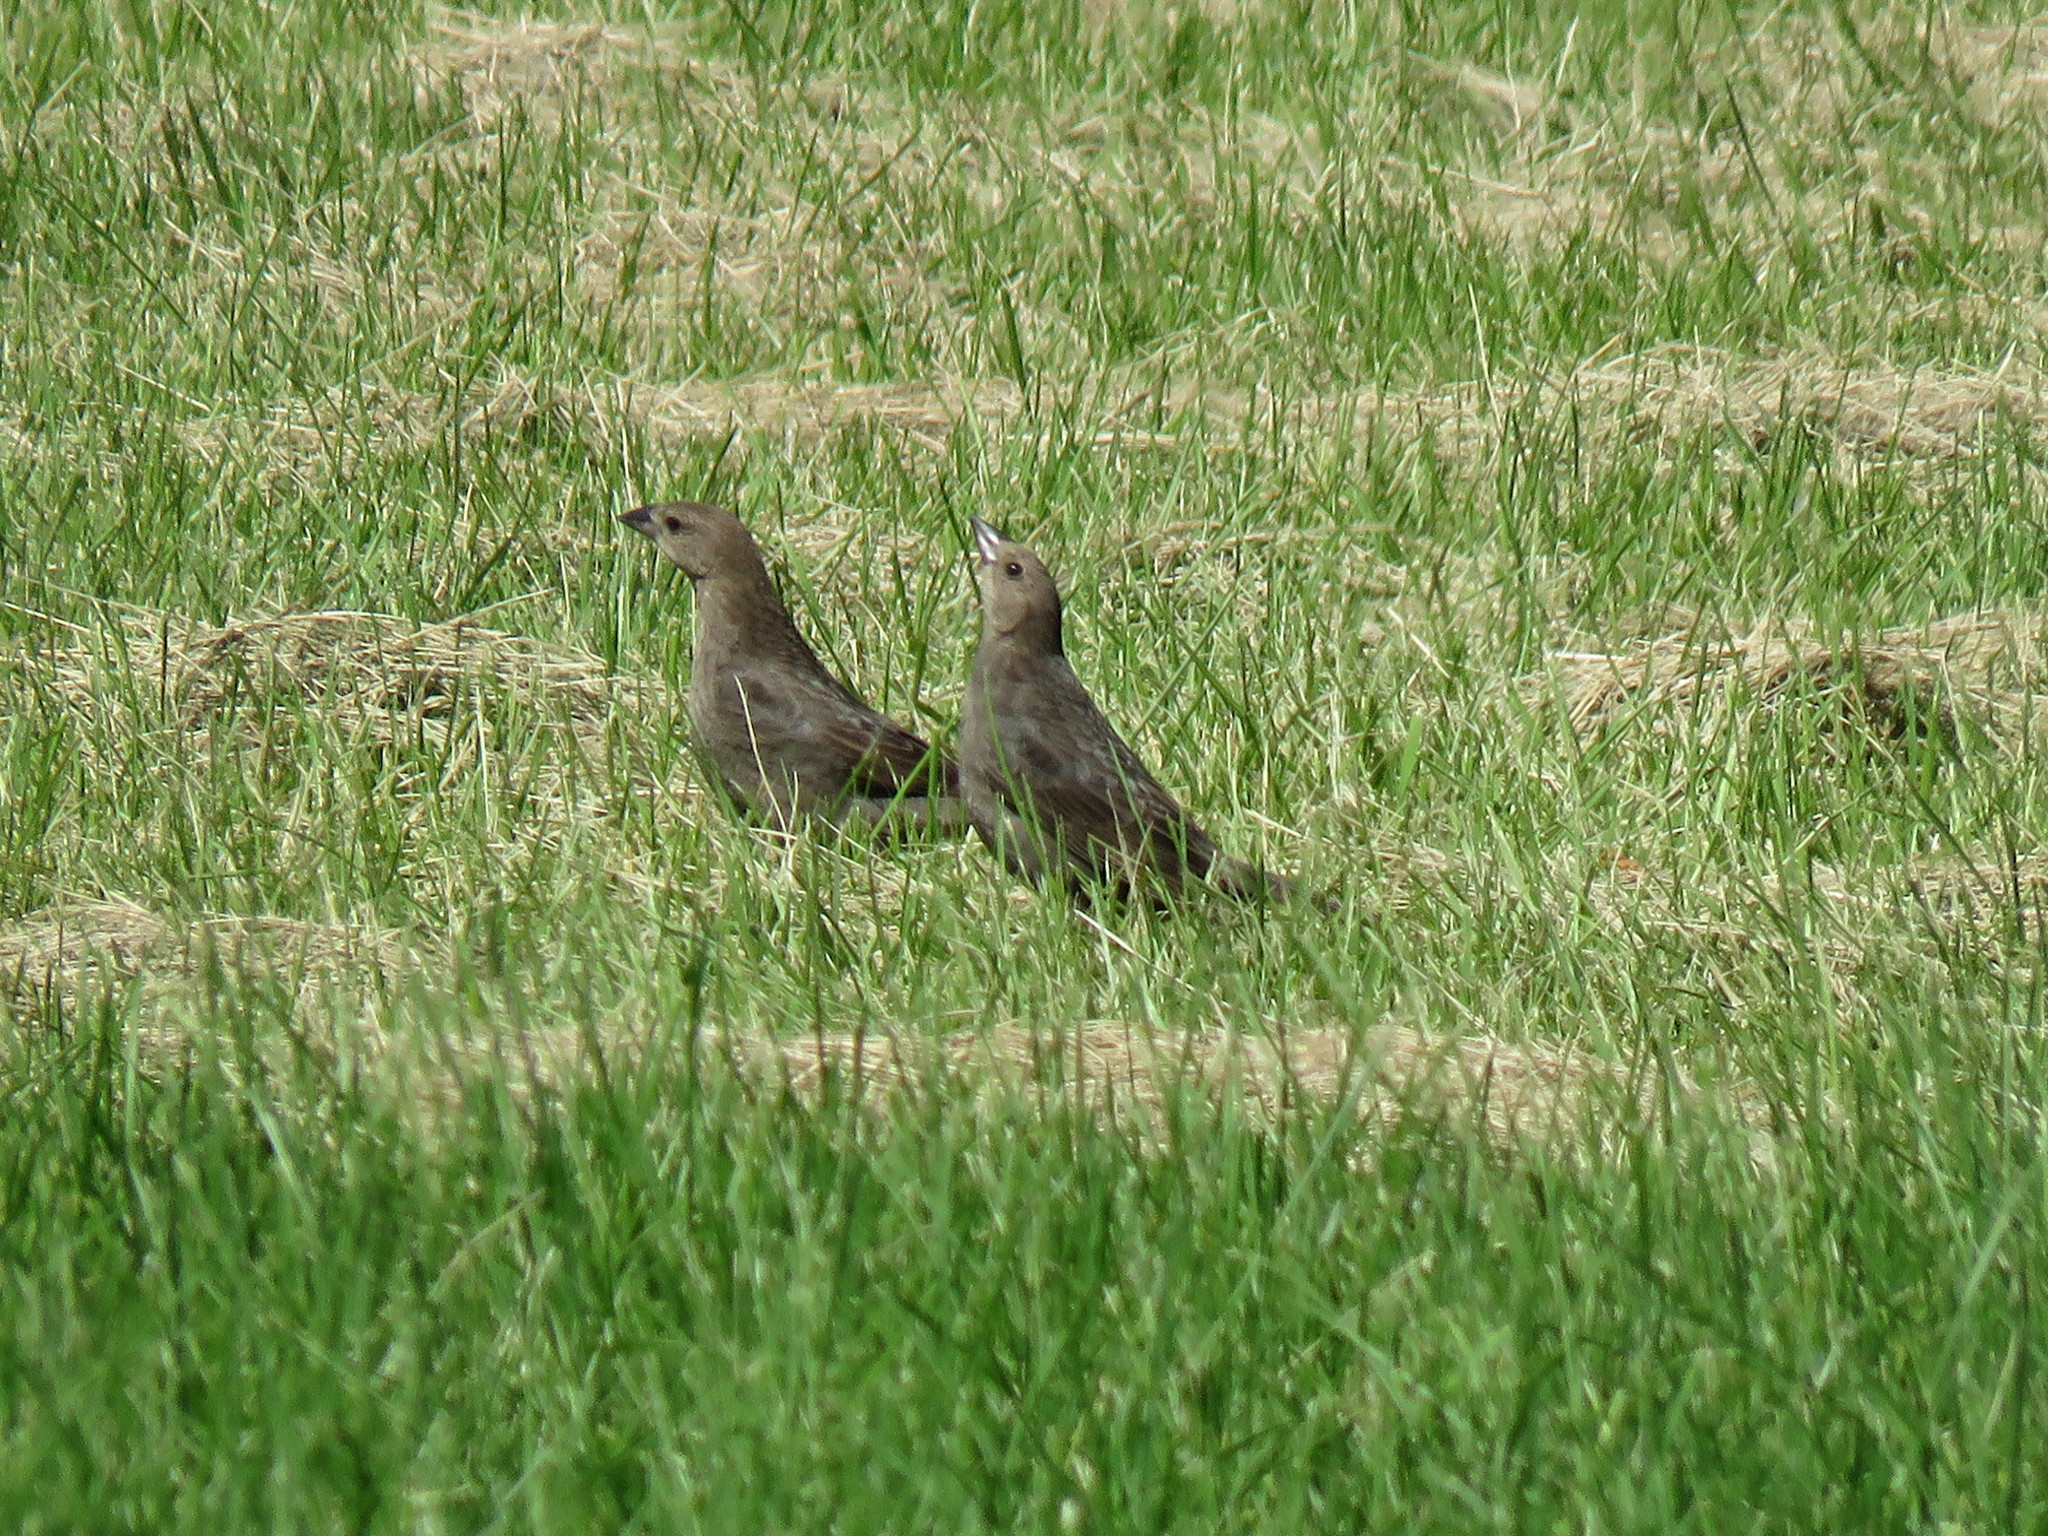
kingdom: Animalia
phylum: Chordata
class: Aves
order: Passeriformes
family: Icteridae
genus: Molothrus
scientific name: Molothrus ater
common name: Brown-headed cowbird
